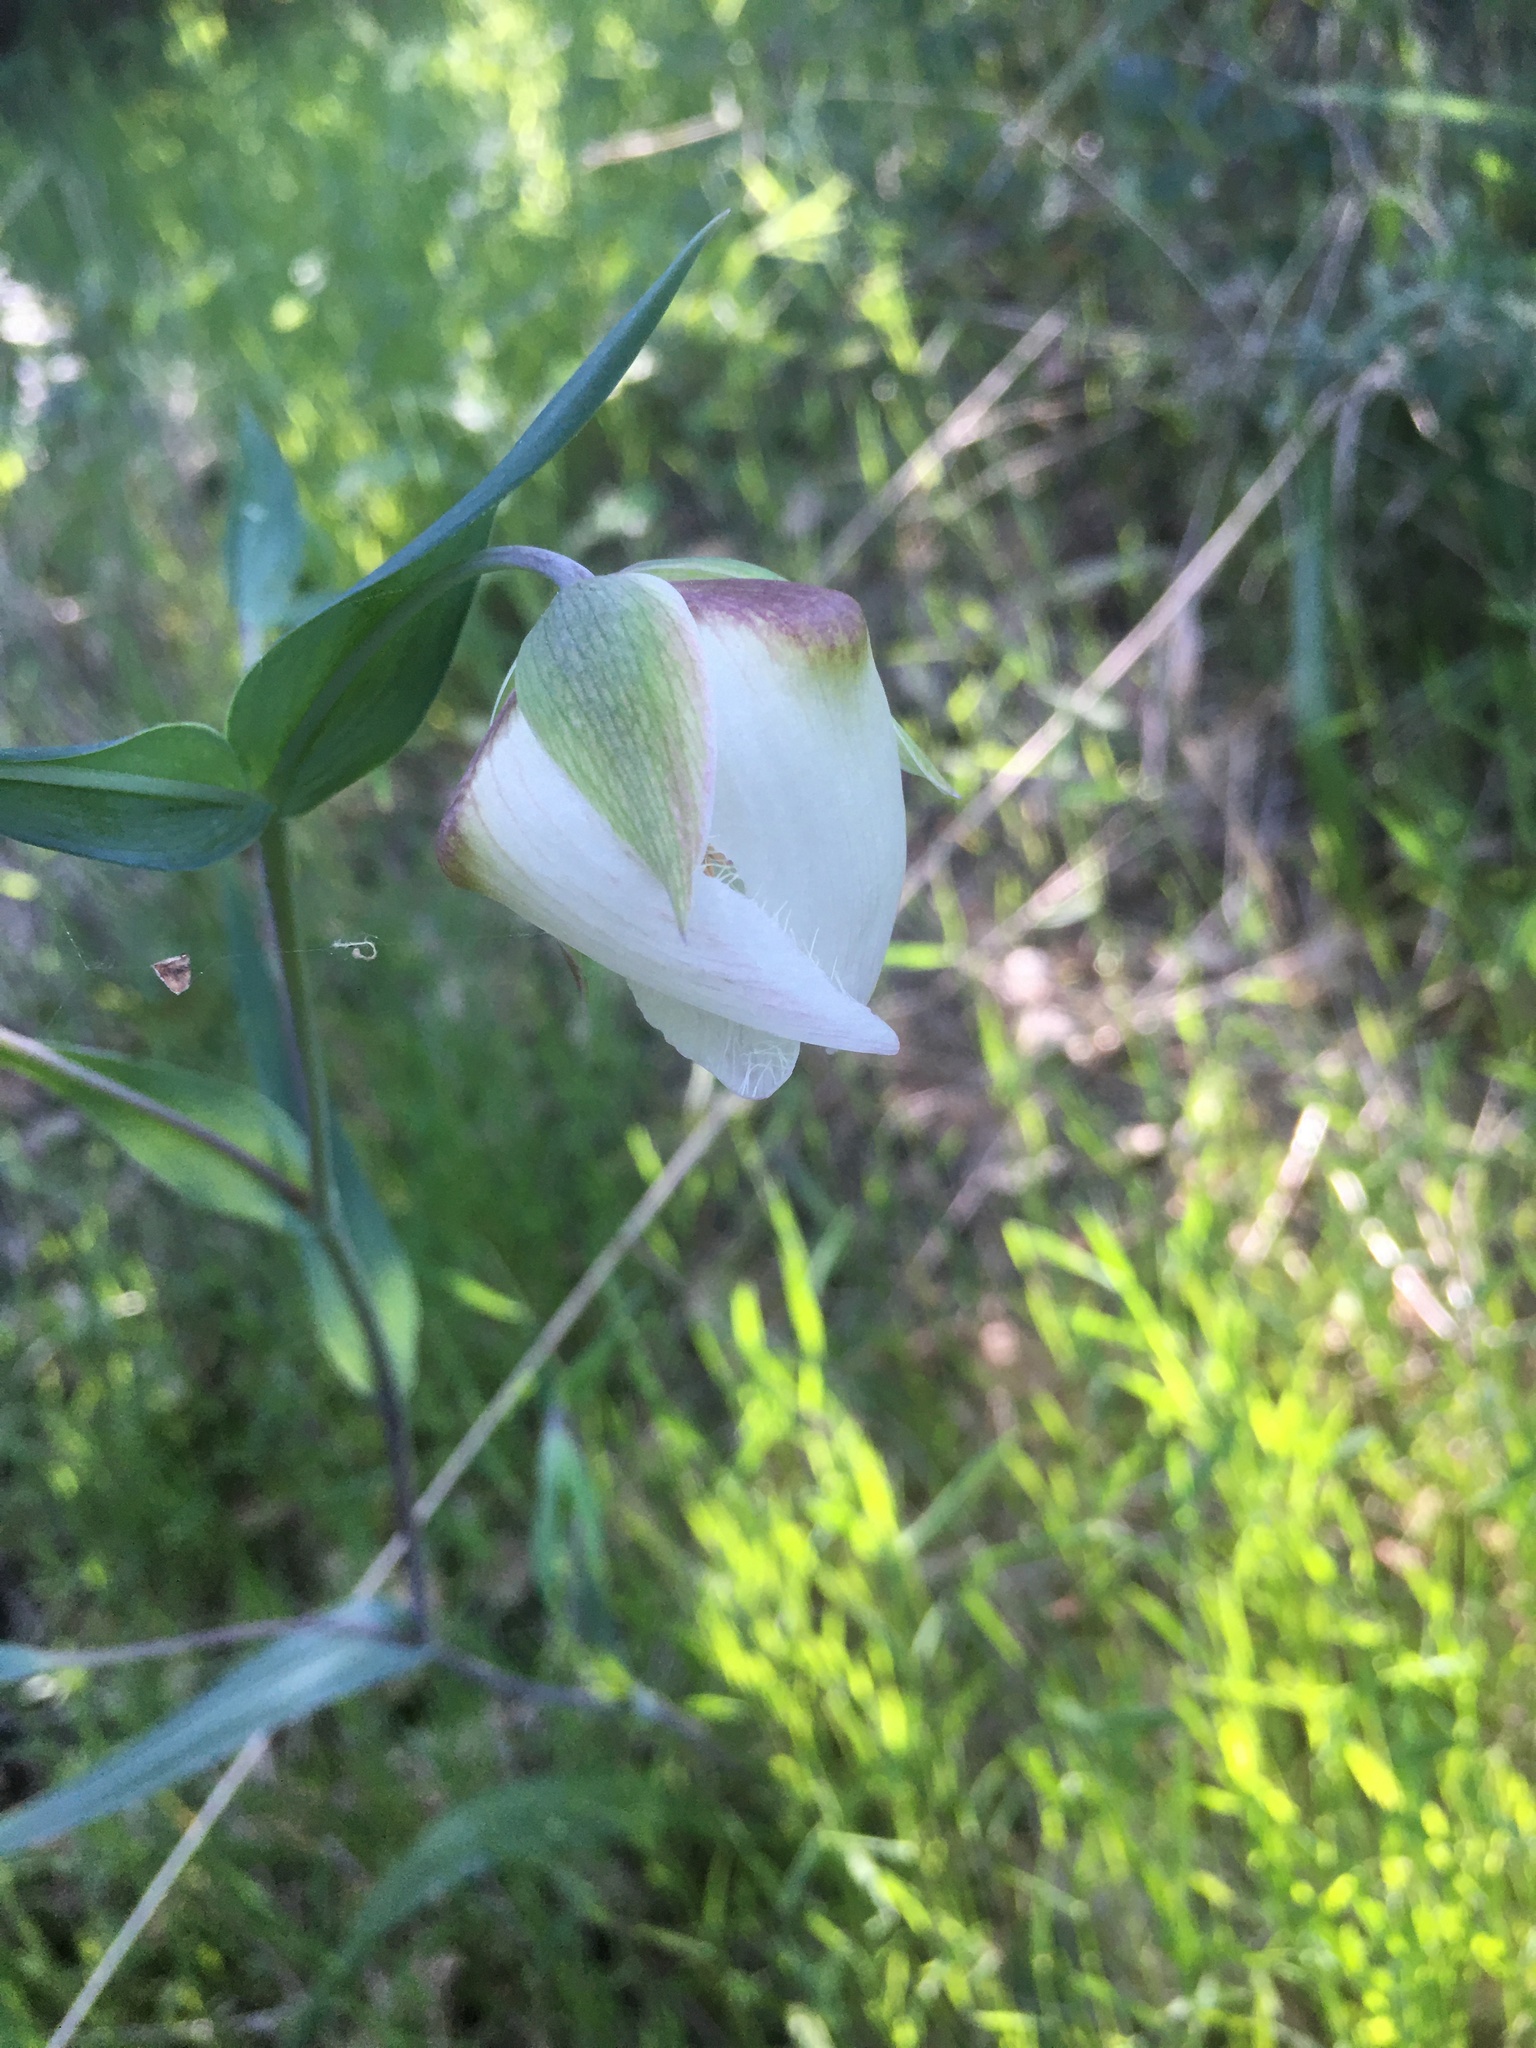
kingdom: Plantae
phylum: Tracheophyta
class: Liliopsida
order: Liliales
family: Liliaceae
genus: Calochortus
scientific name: Calochortus albus
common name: Fairy-lantern
